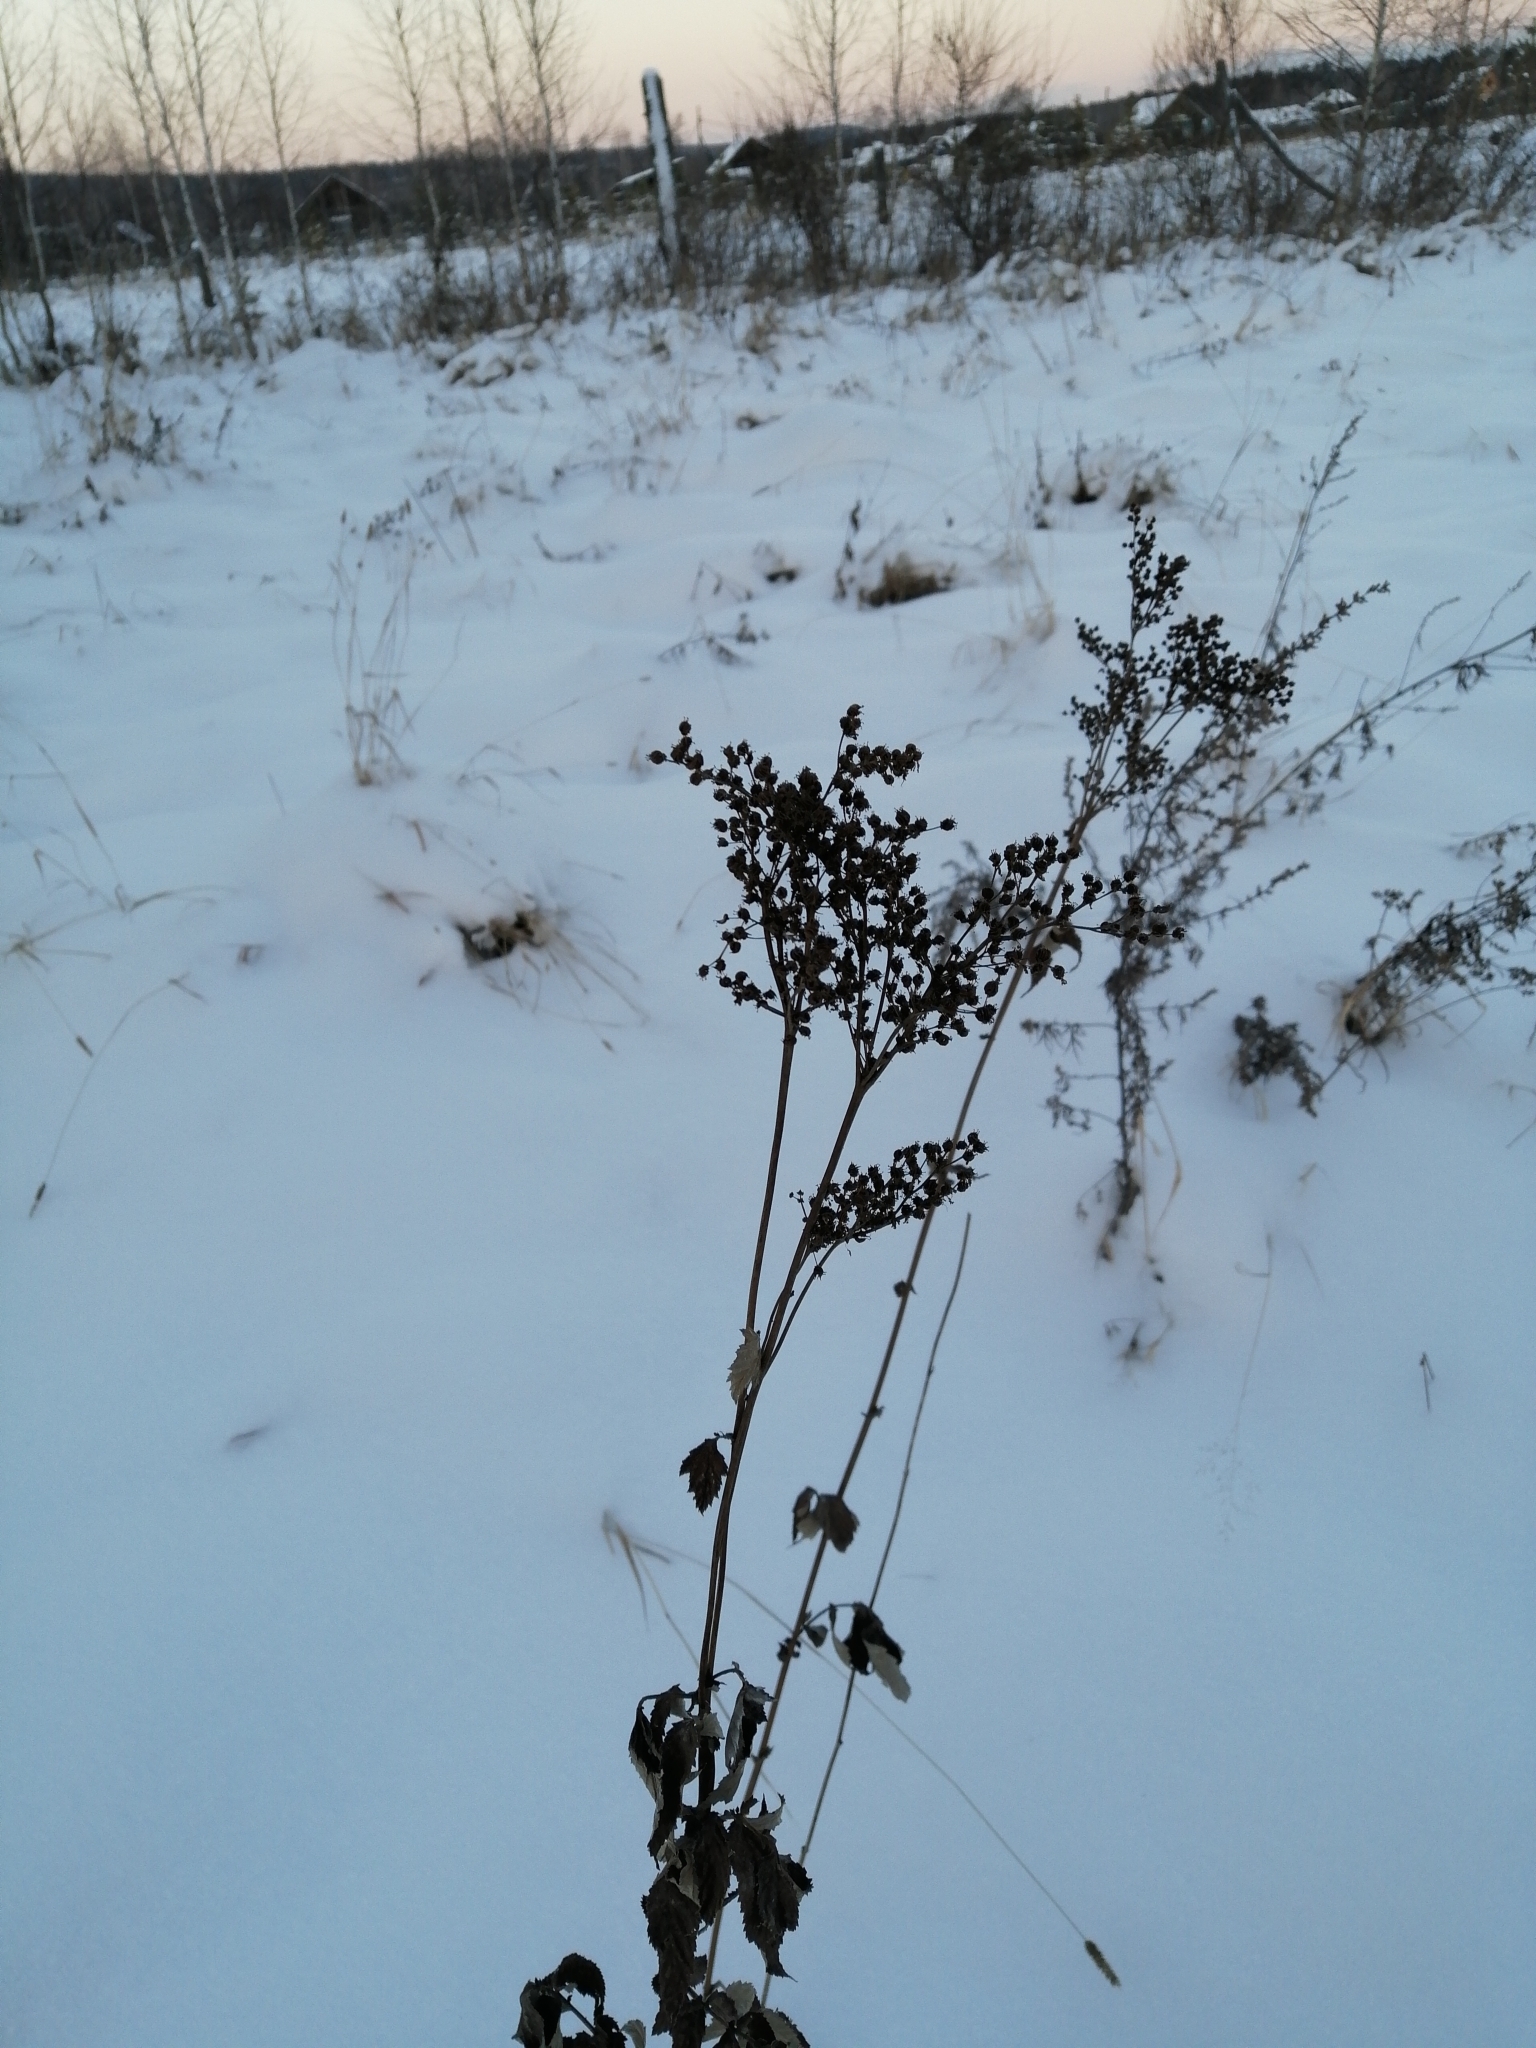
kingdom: Plantae
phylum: Tracheophyta
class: Magnoliopsida
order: Rosales
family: Rosaceae
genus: Filipendula
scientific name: Filipendula ulmaria
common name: Meadowsweet
